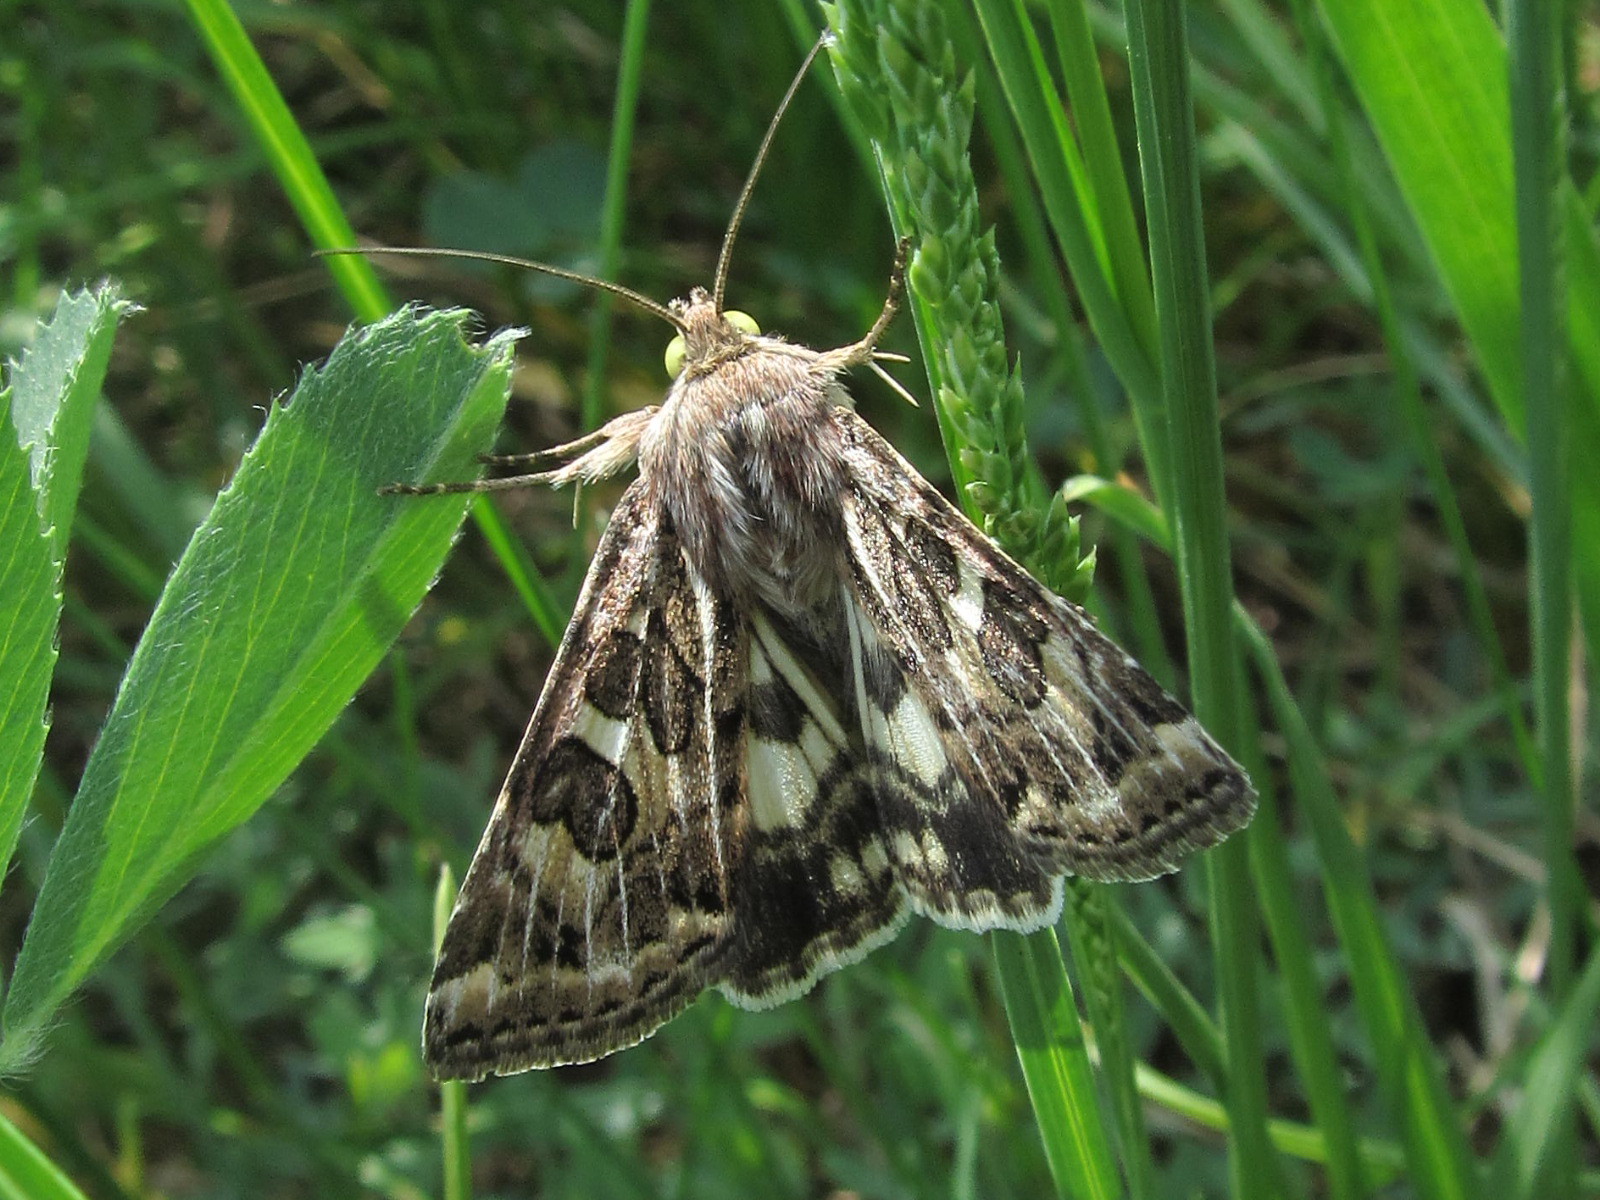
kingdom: Animalia
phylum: Arthropoda
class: Insecta
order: Lepidoptera
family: Noctuidae
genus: Protoschinia
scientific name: Protoschinia scutosa
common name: Spotted clover
